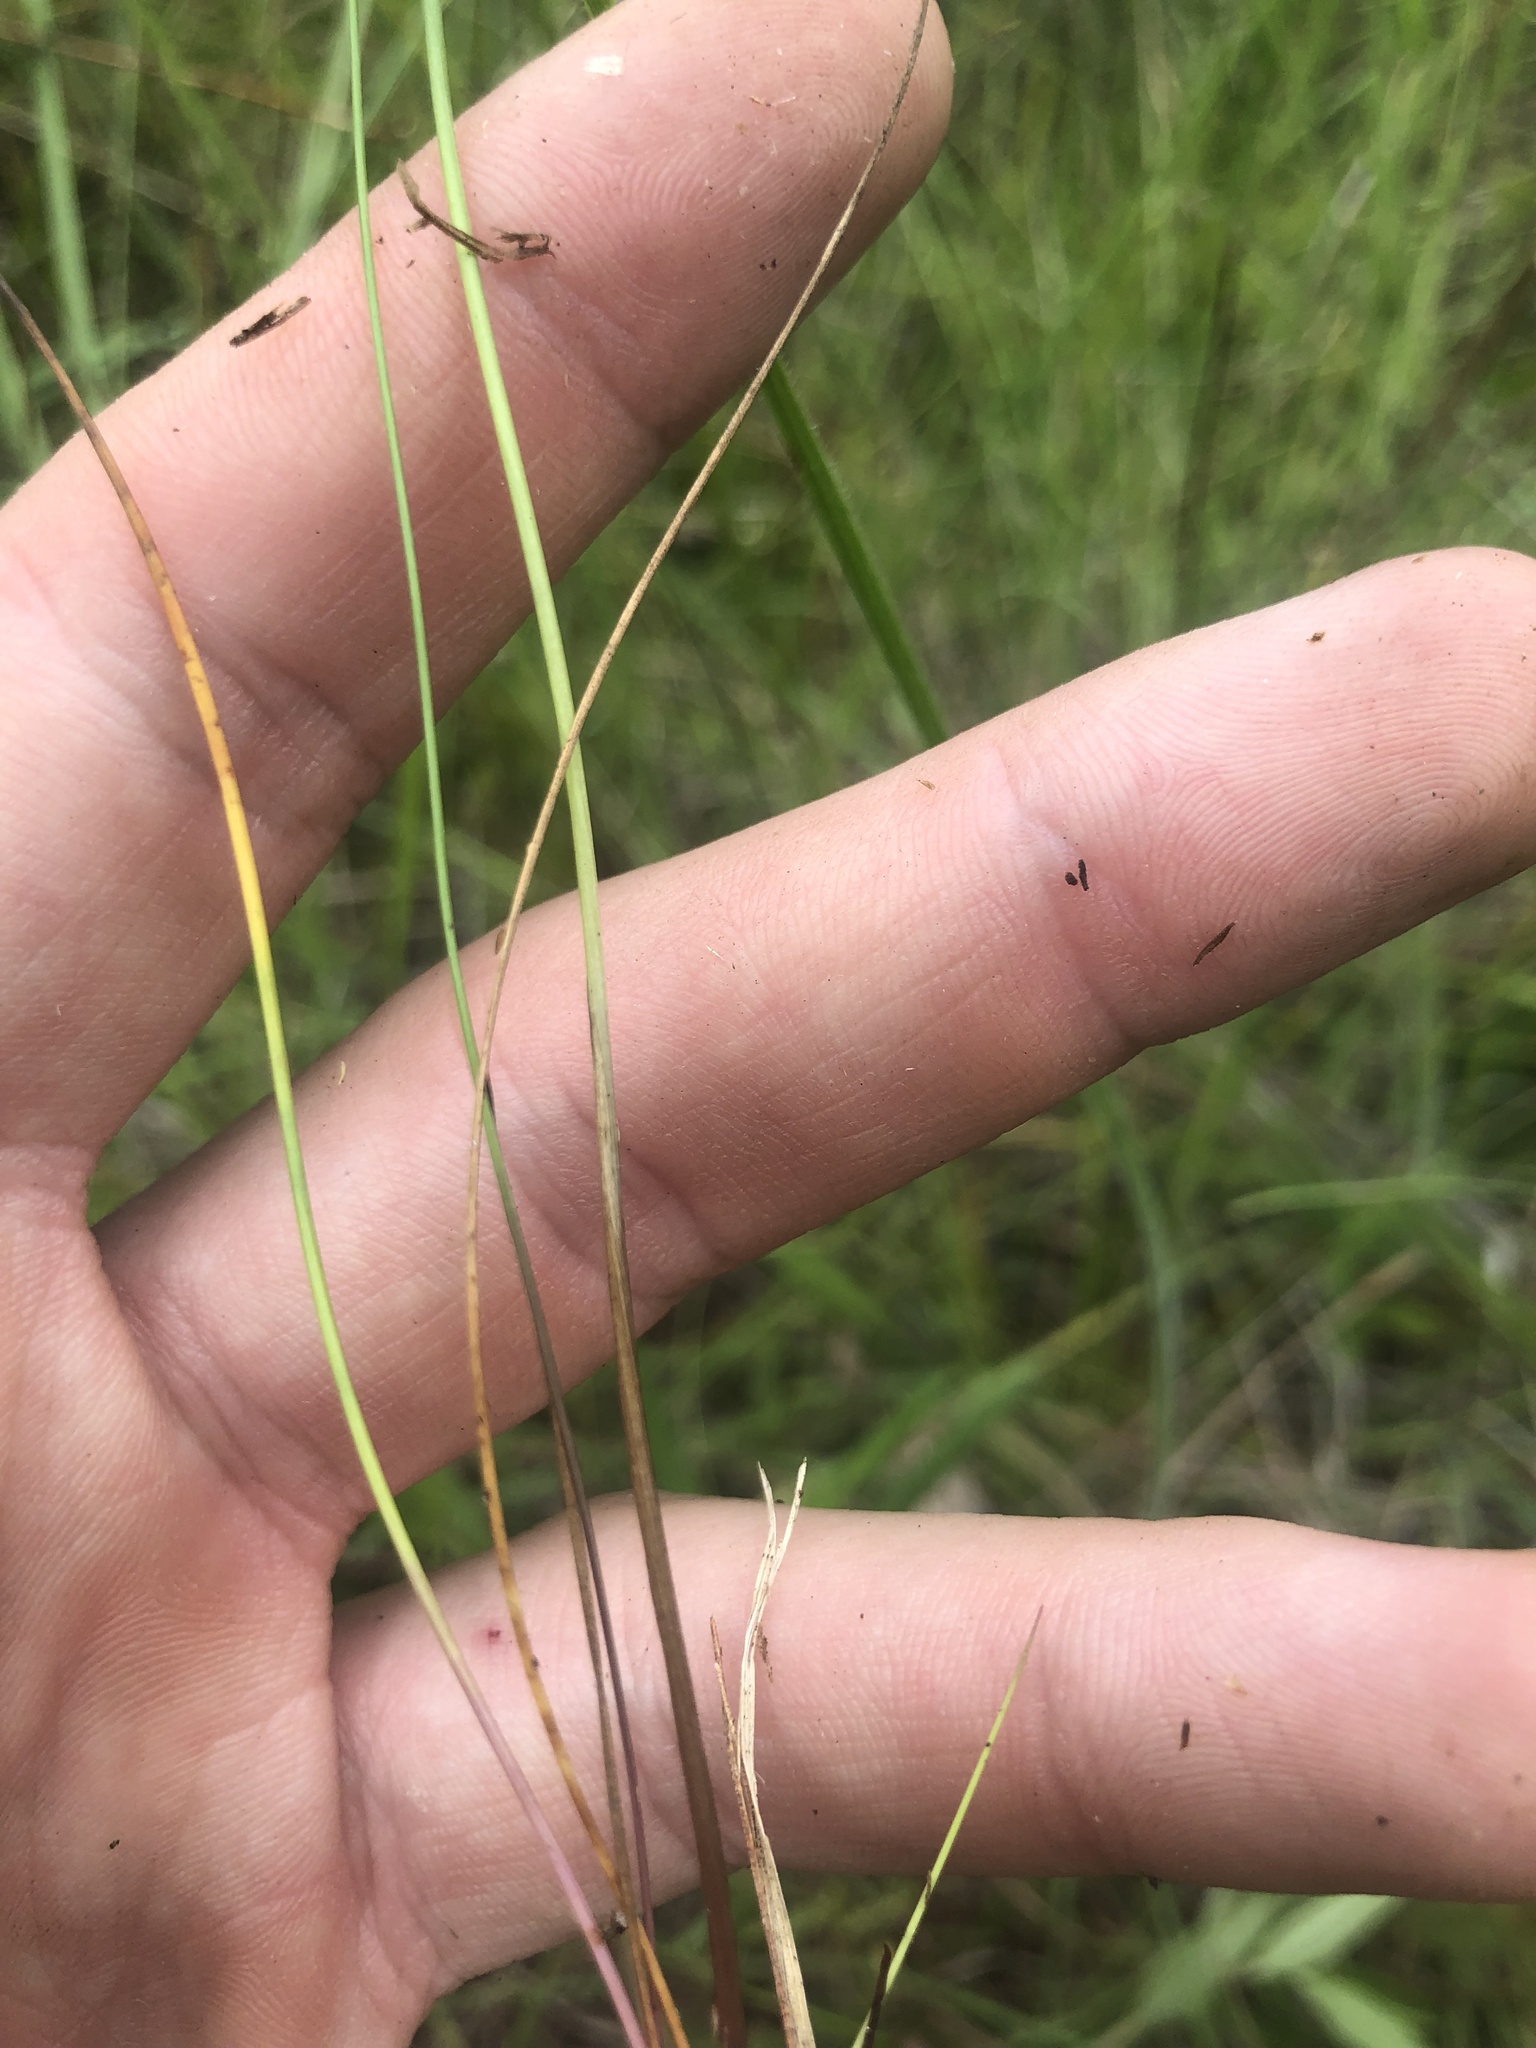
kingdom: Plantae
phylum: Tracheophyta
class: Liliopsida
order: Poales
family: Xyridaceae
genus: Xyris
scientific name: Xyris baldwiniana
